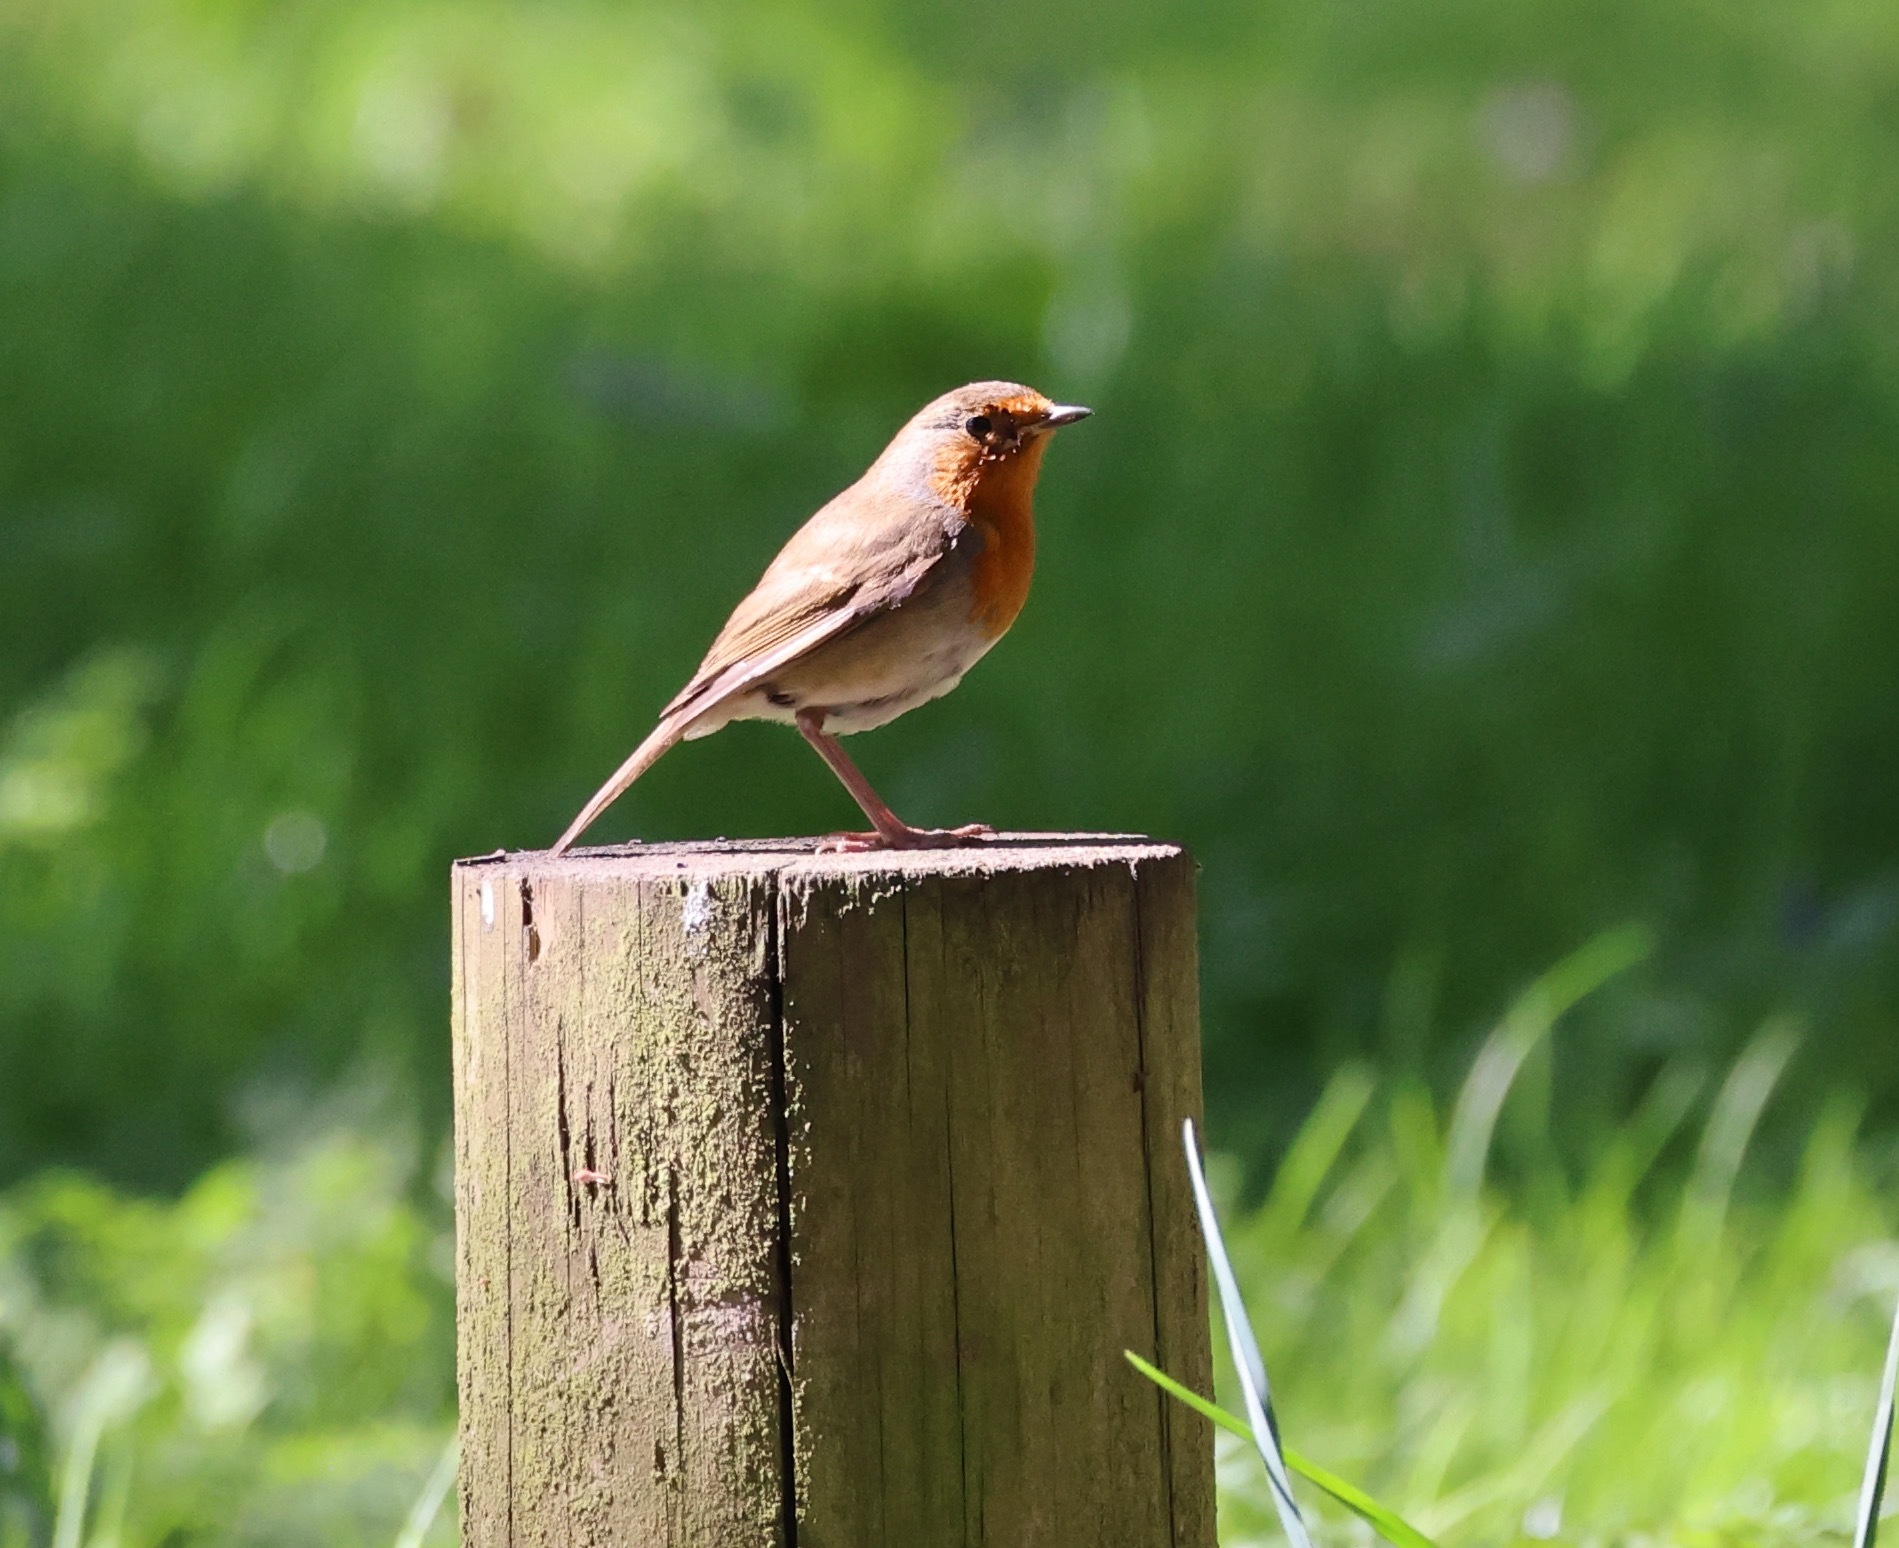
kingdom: Animalia
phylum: Chordata
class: Aves
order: Passeriformes
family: Muscicapidae
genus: Erithacus
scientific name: Erithacus rubecula
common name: European robin
